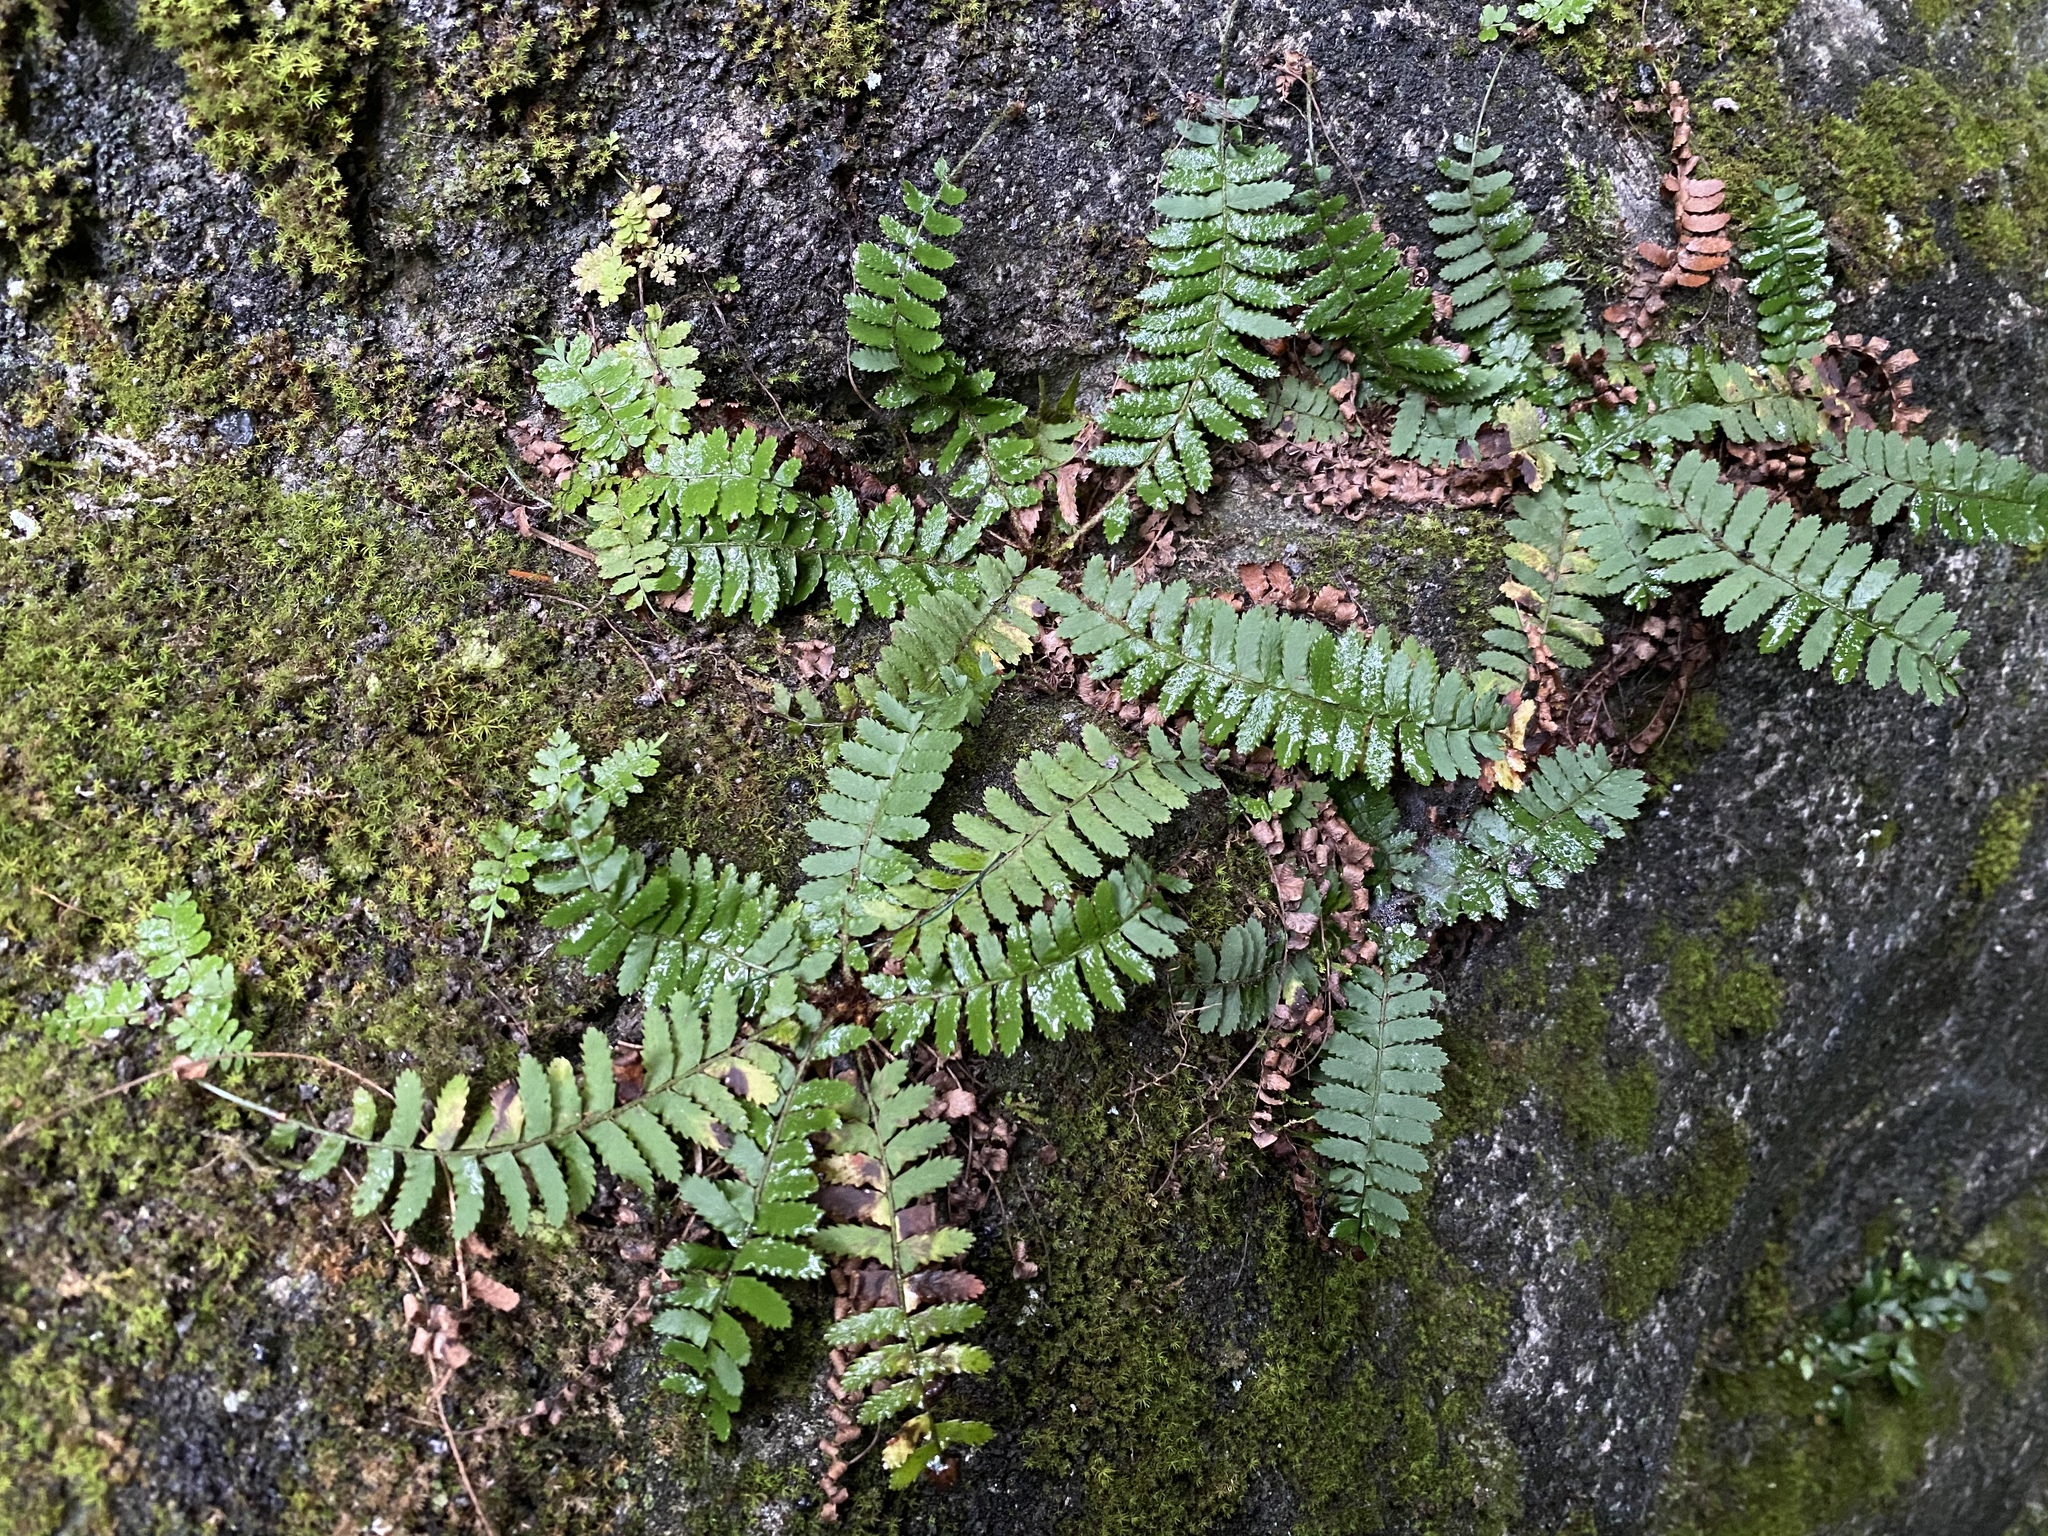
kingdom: Plantae
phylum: Tracheophyta
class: Polypodiopsida
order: Polypodiales
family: Dryopteridaceae
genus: Polystichum
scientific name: Polystichum craspedosorum
